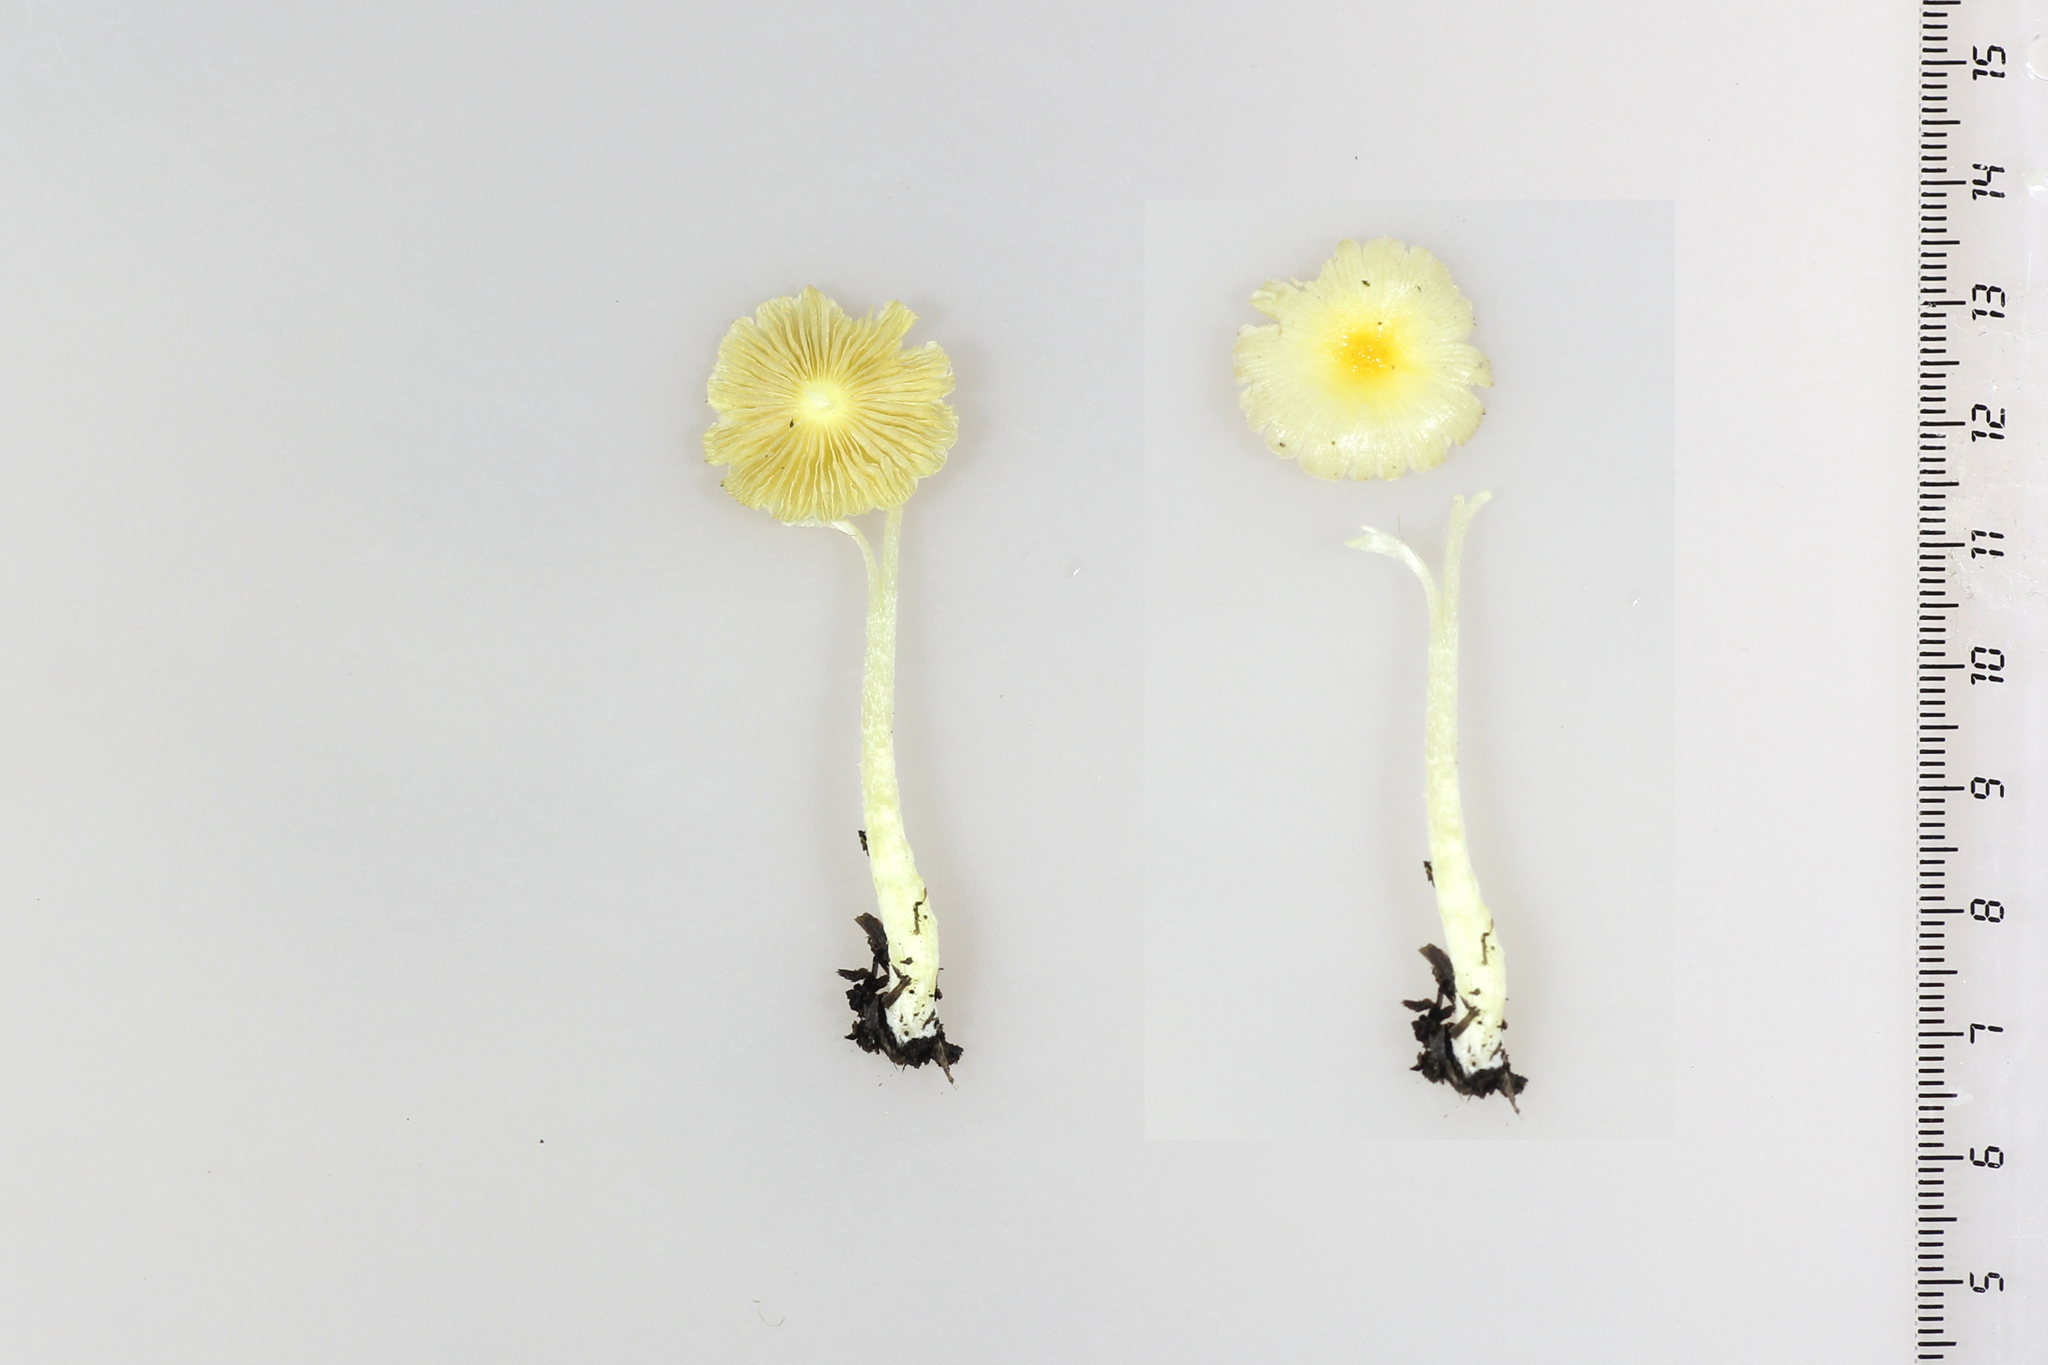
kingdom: Fungi
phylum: Basidiomycota
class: Agaricomycetes
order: Agaricales
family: Bolbitiaceae
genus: Bolbitius
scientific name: Bolbitius titubans
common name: Yellow fieldcap
